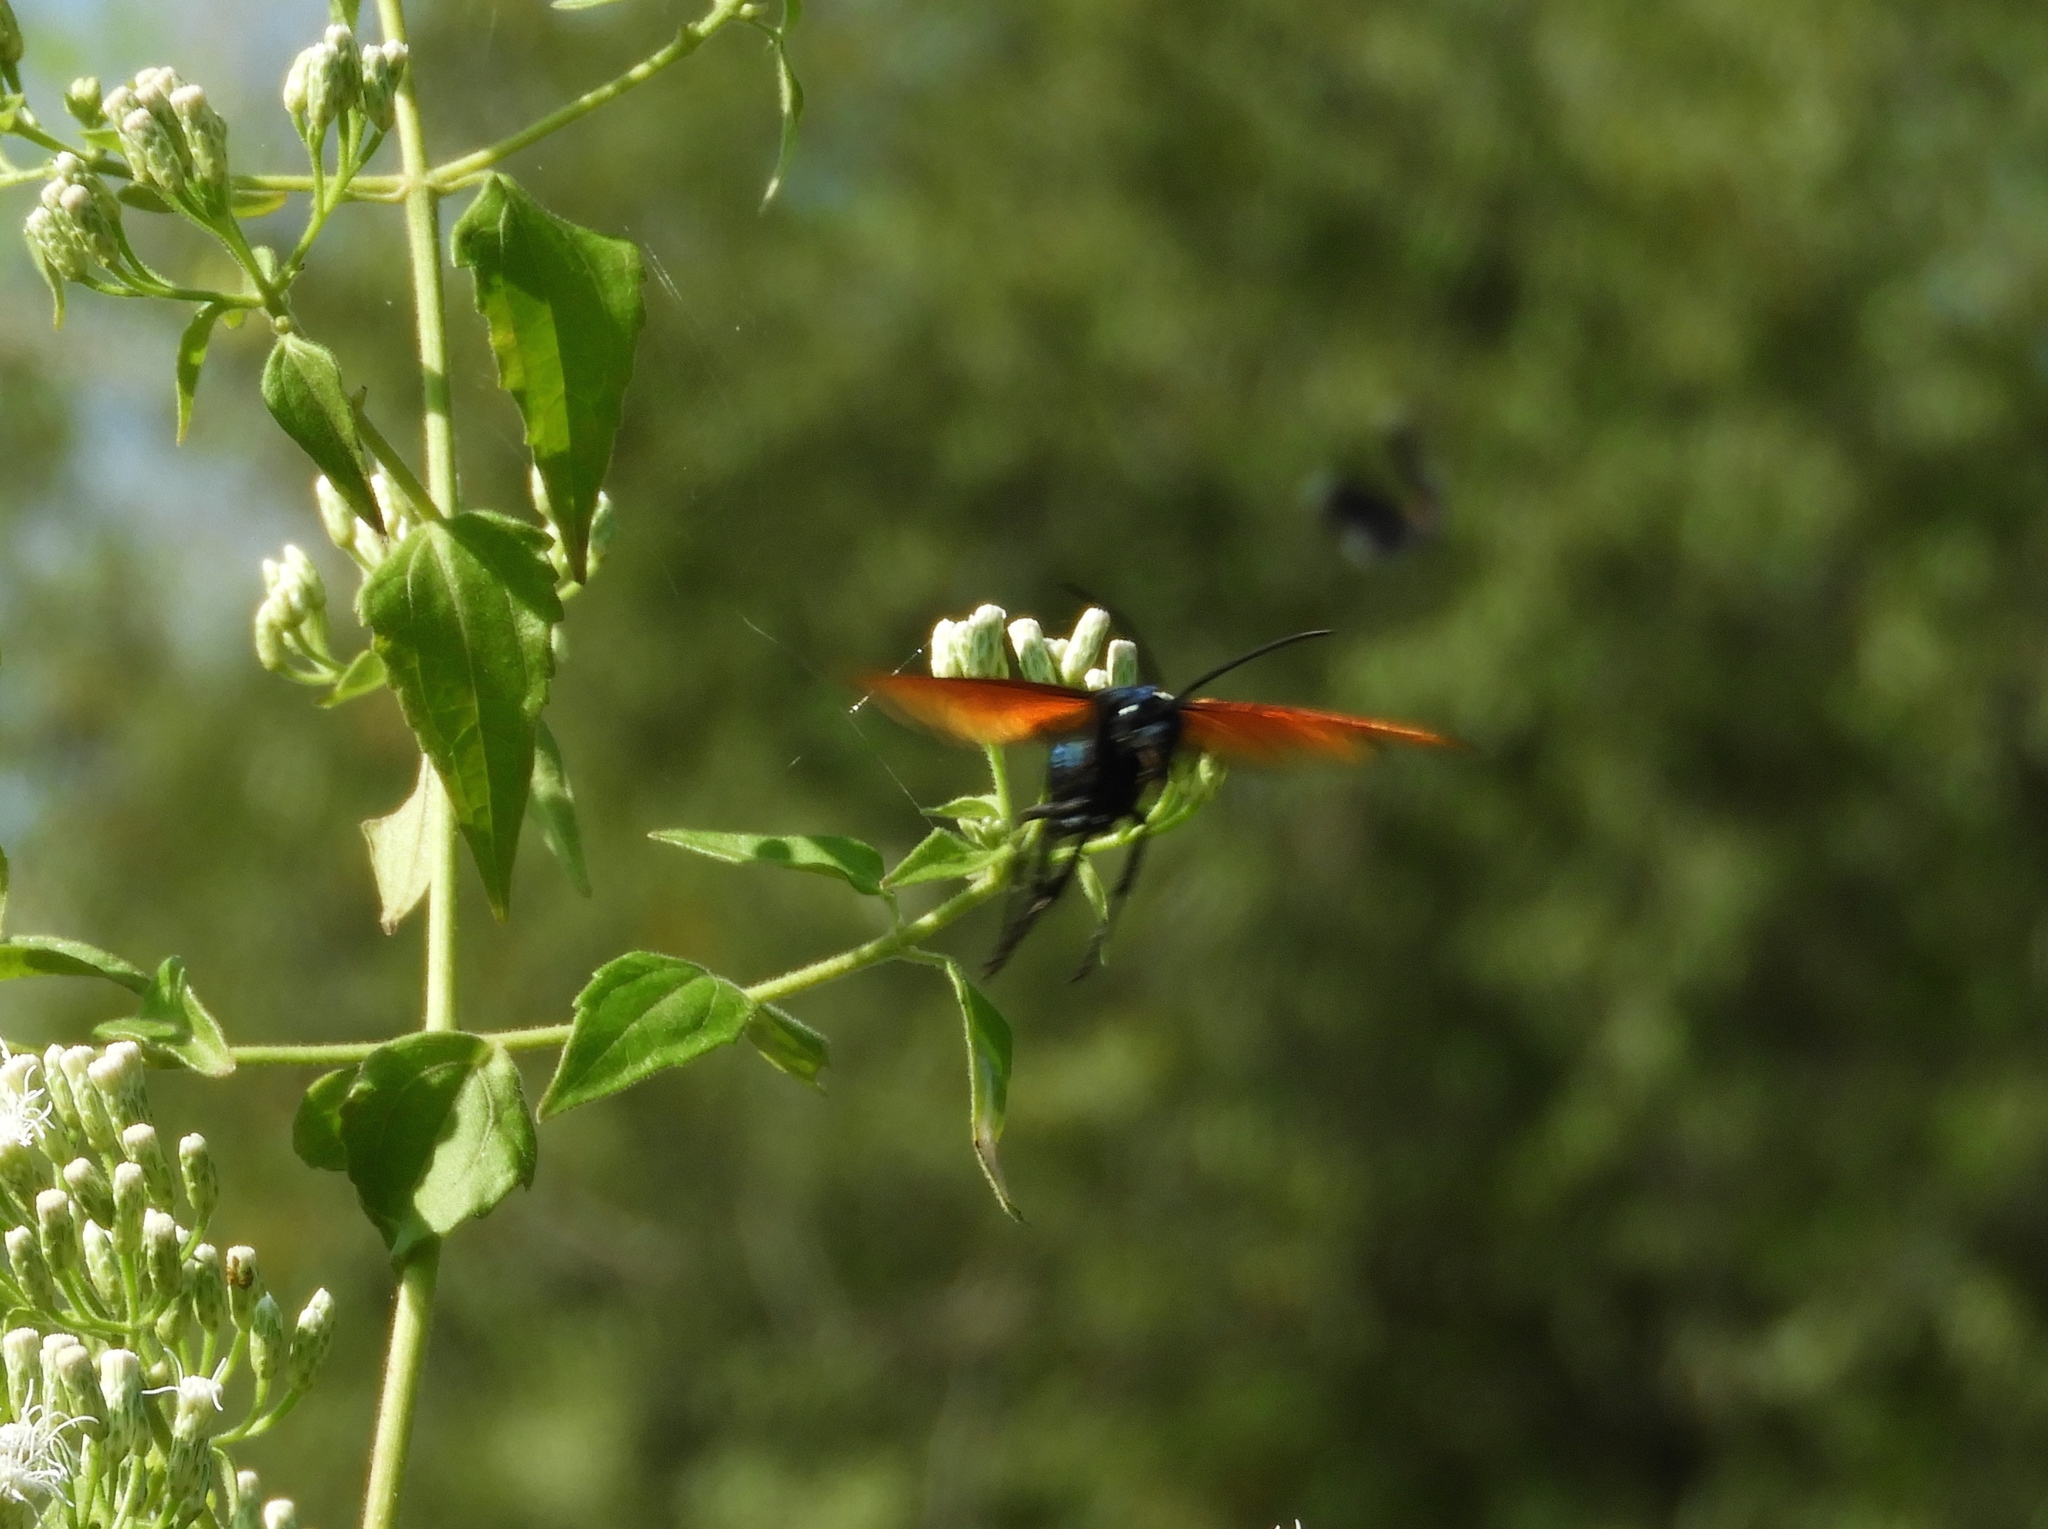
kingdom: Animalia
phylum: Arthropoda
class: Insecta
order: Hymenoptera
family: Pompilidae
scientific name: Pompilidae
